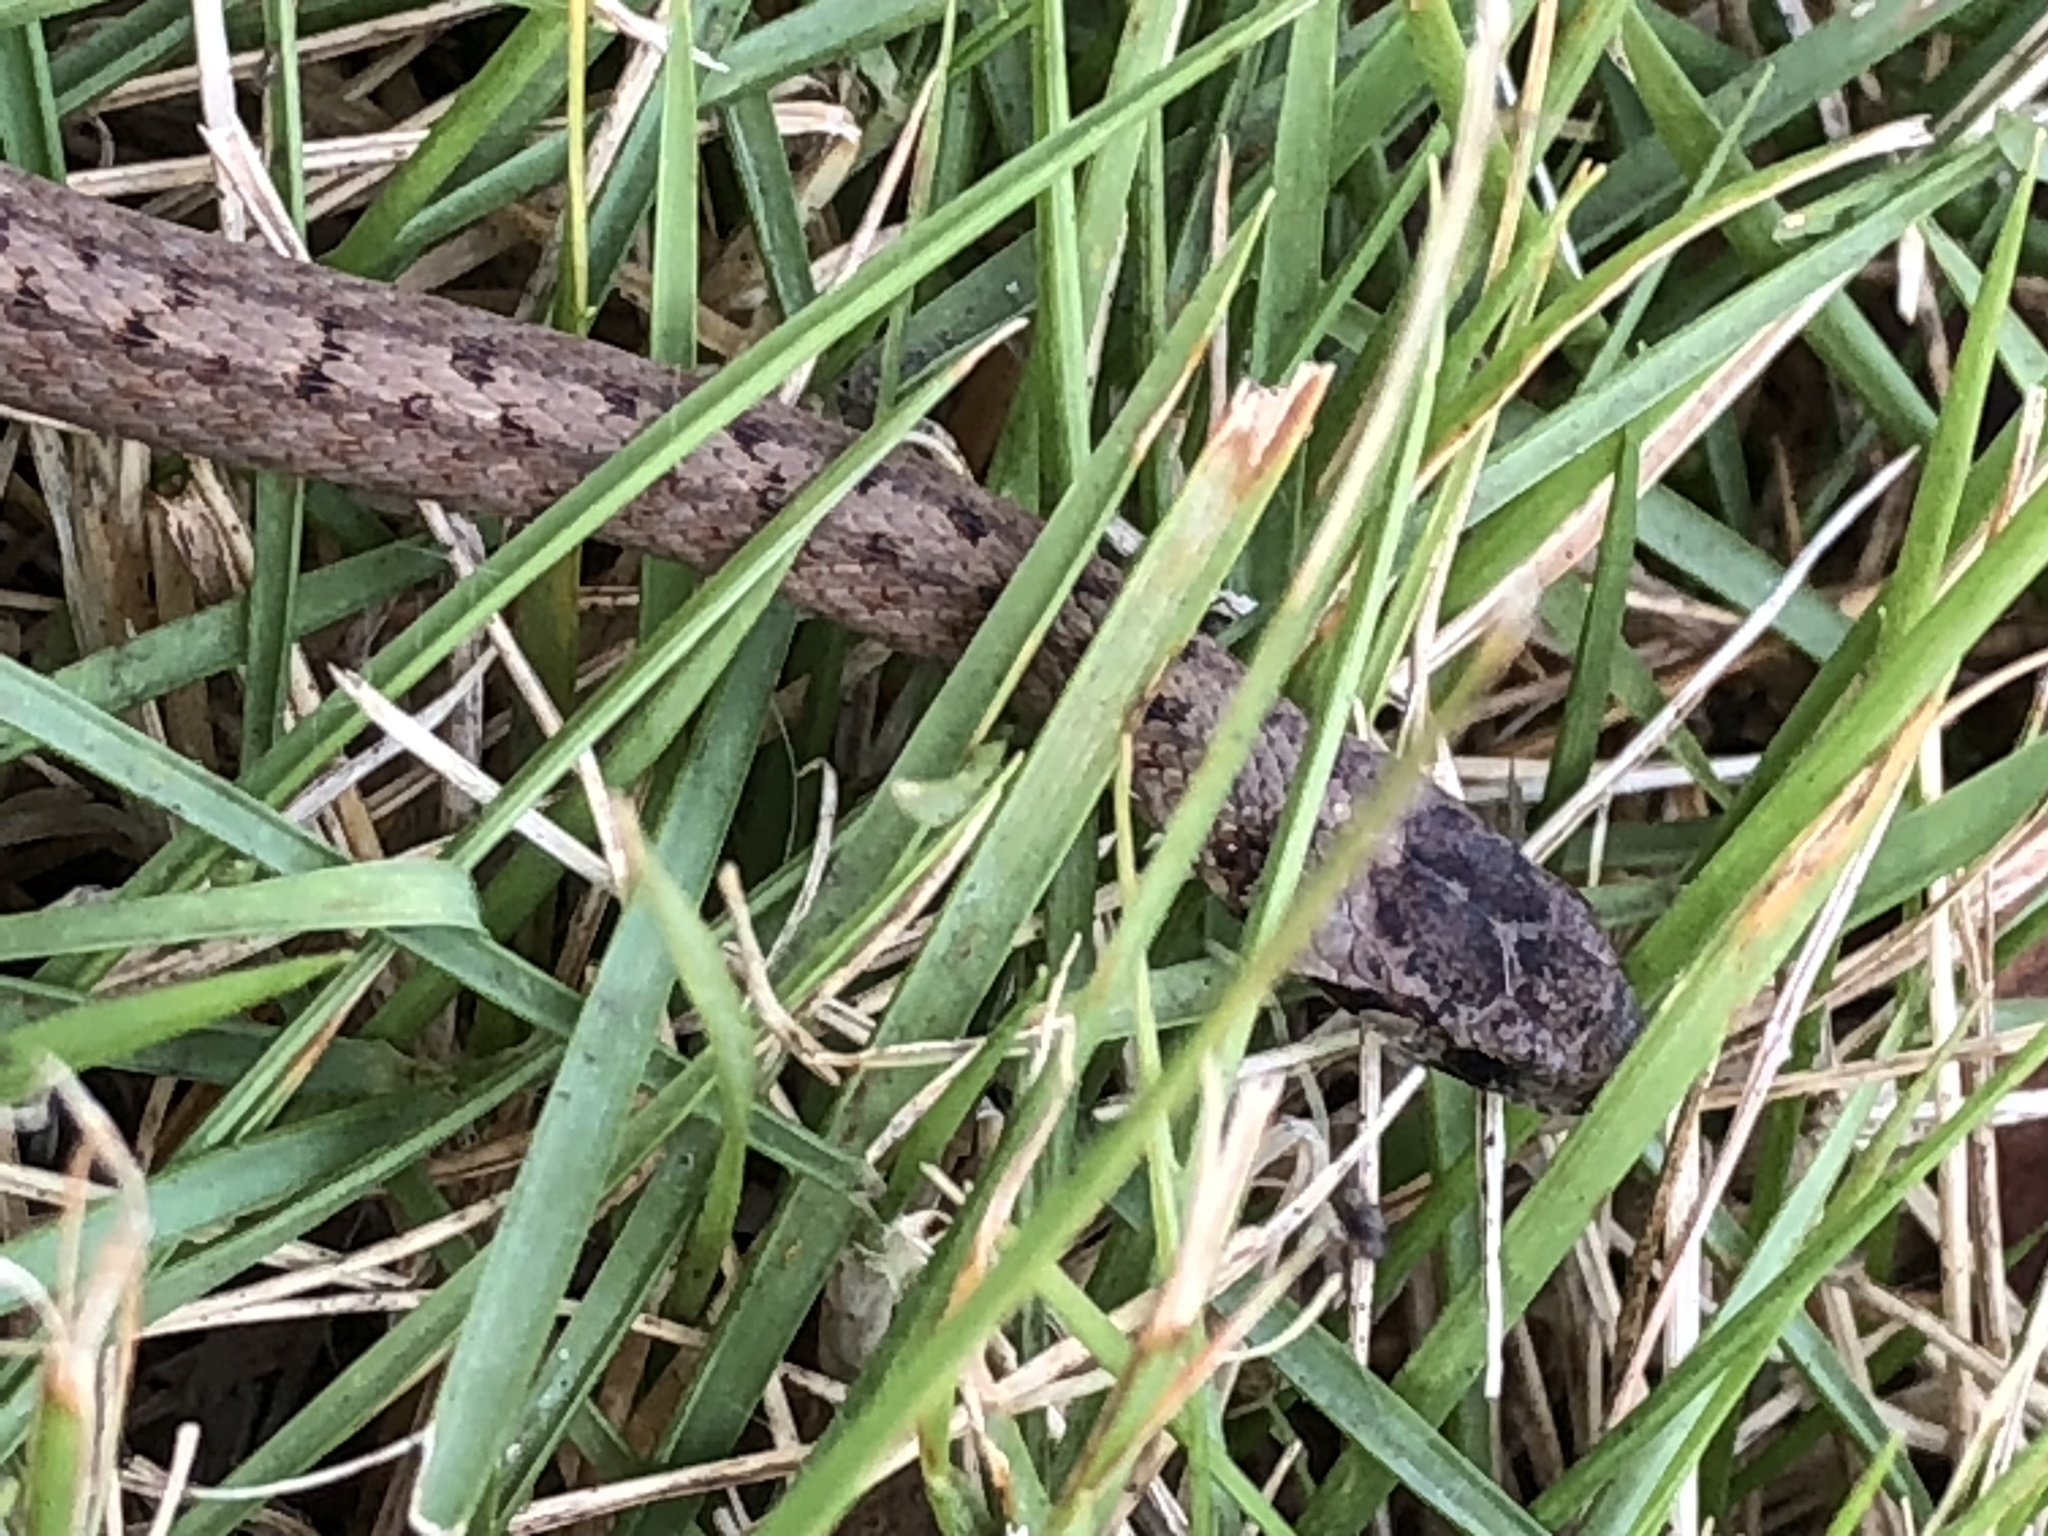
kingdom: Animalia
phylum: Chordata
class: Squamata
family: Colubridae
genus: Storeria
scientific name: Storeria dekayi
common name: (dekay’s) brown snake
